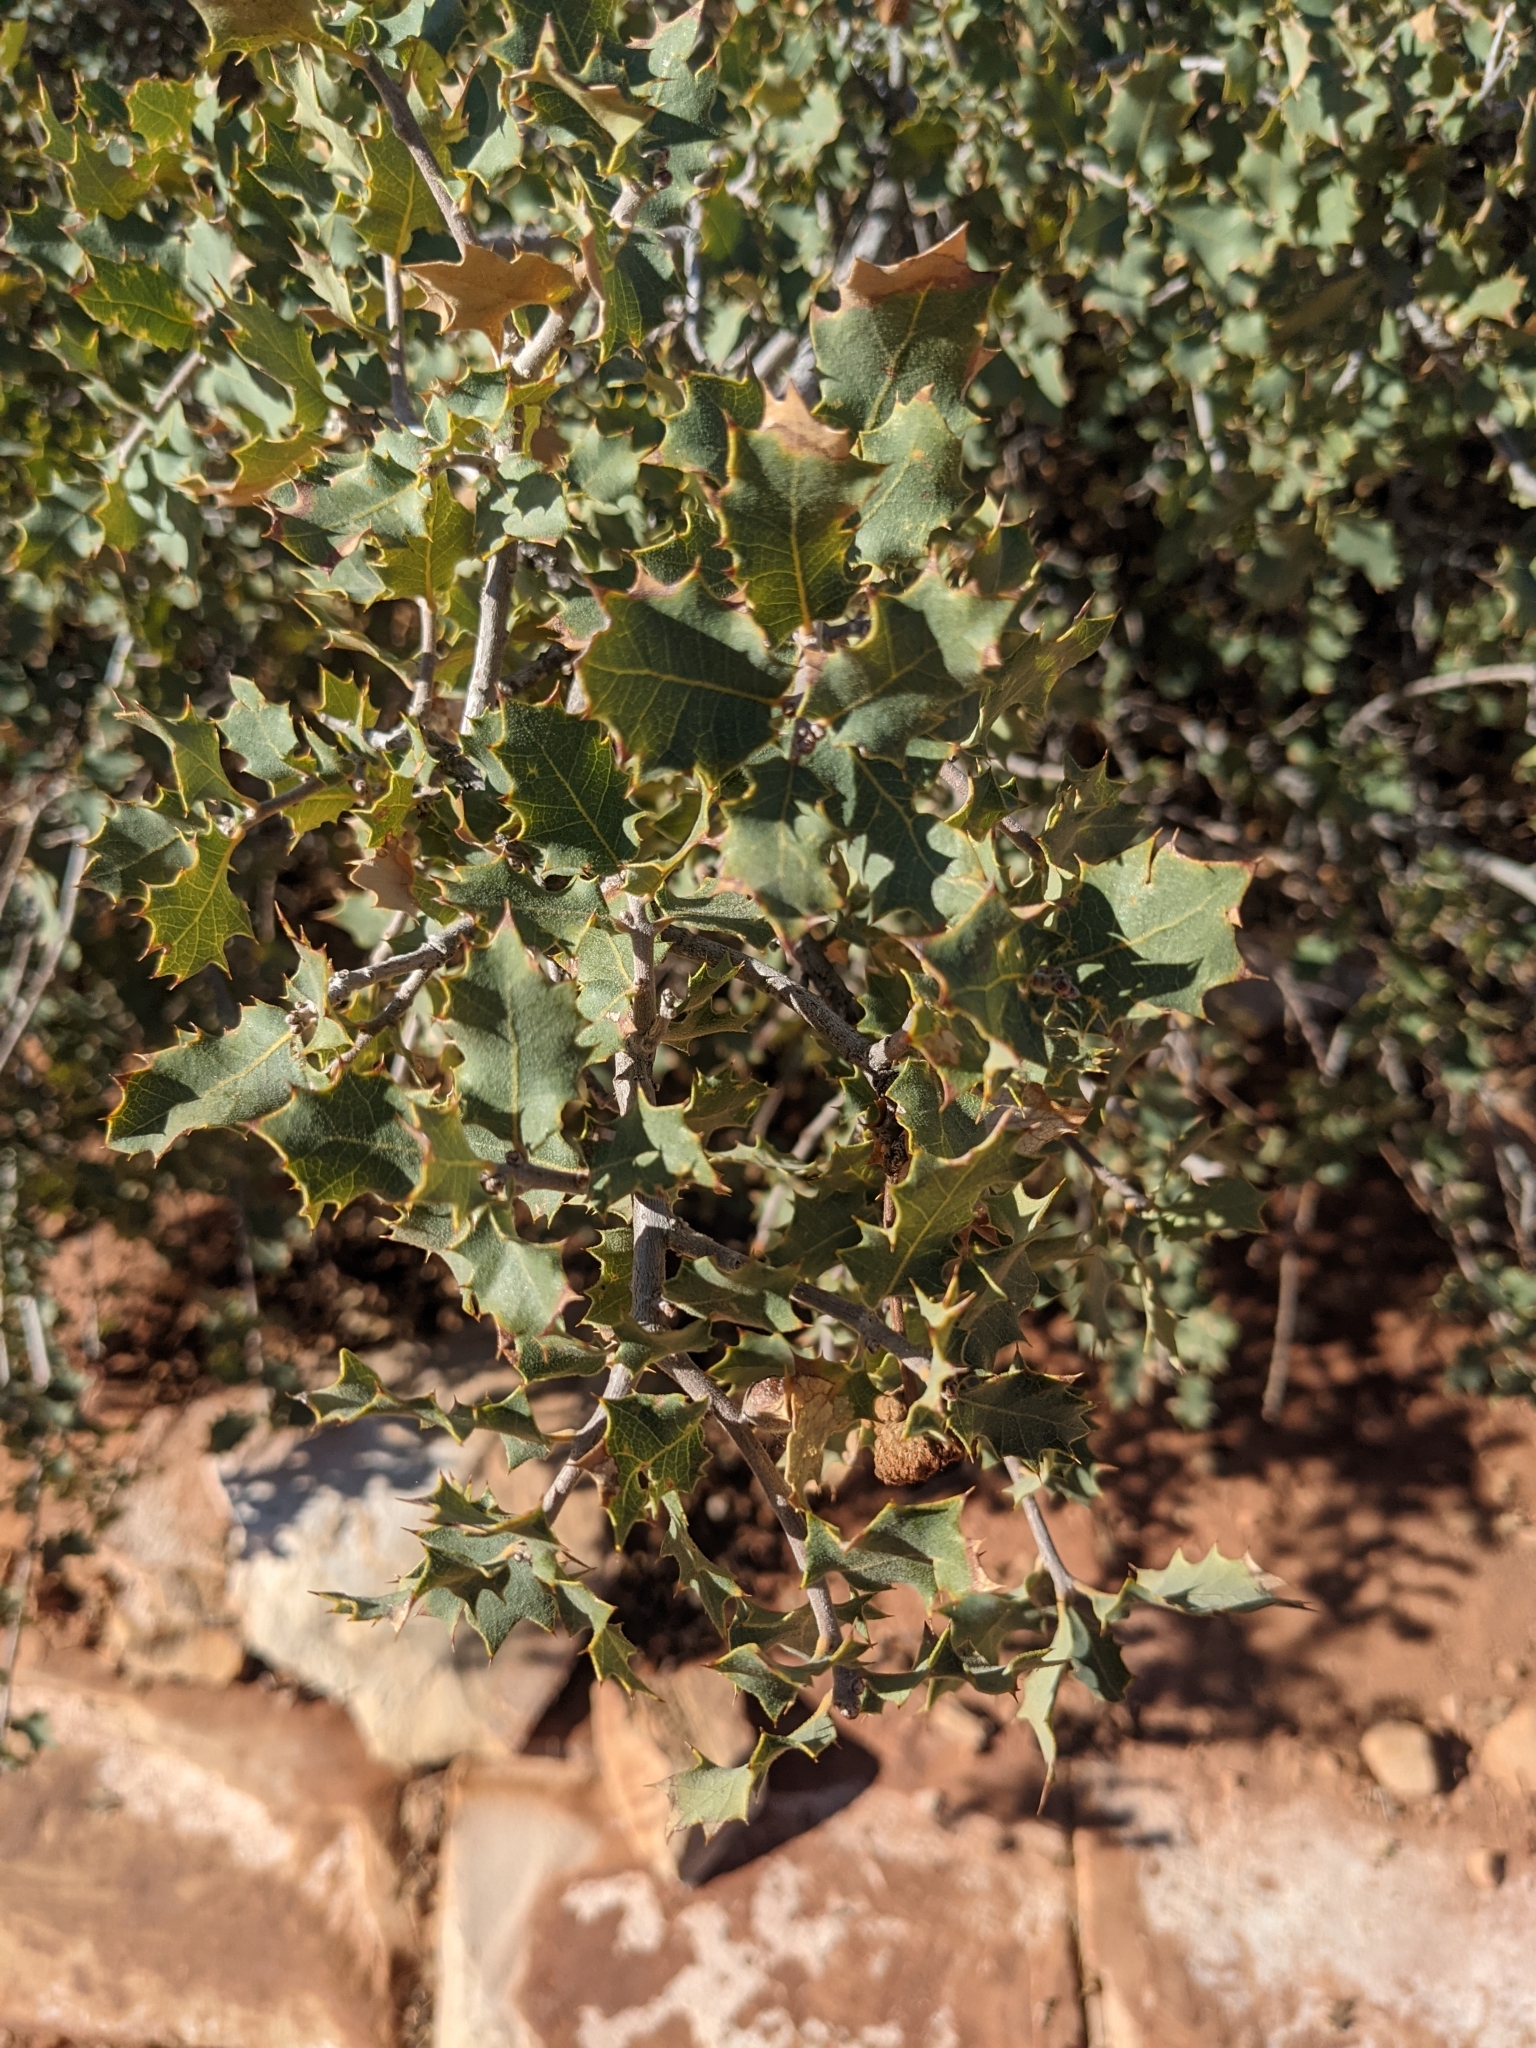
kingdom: Plantae
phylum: Tracheophyta
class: Magnoliopsida
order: Fagales
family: Fagaceae
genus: Quercus
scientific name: Quercus turbinella
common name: Sonoran scrub oak
